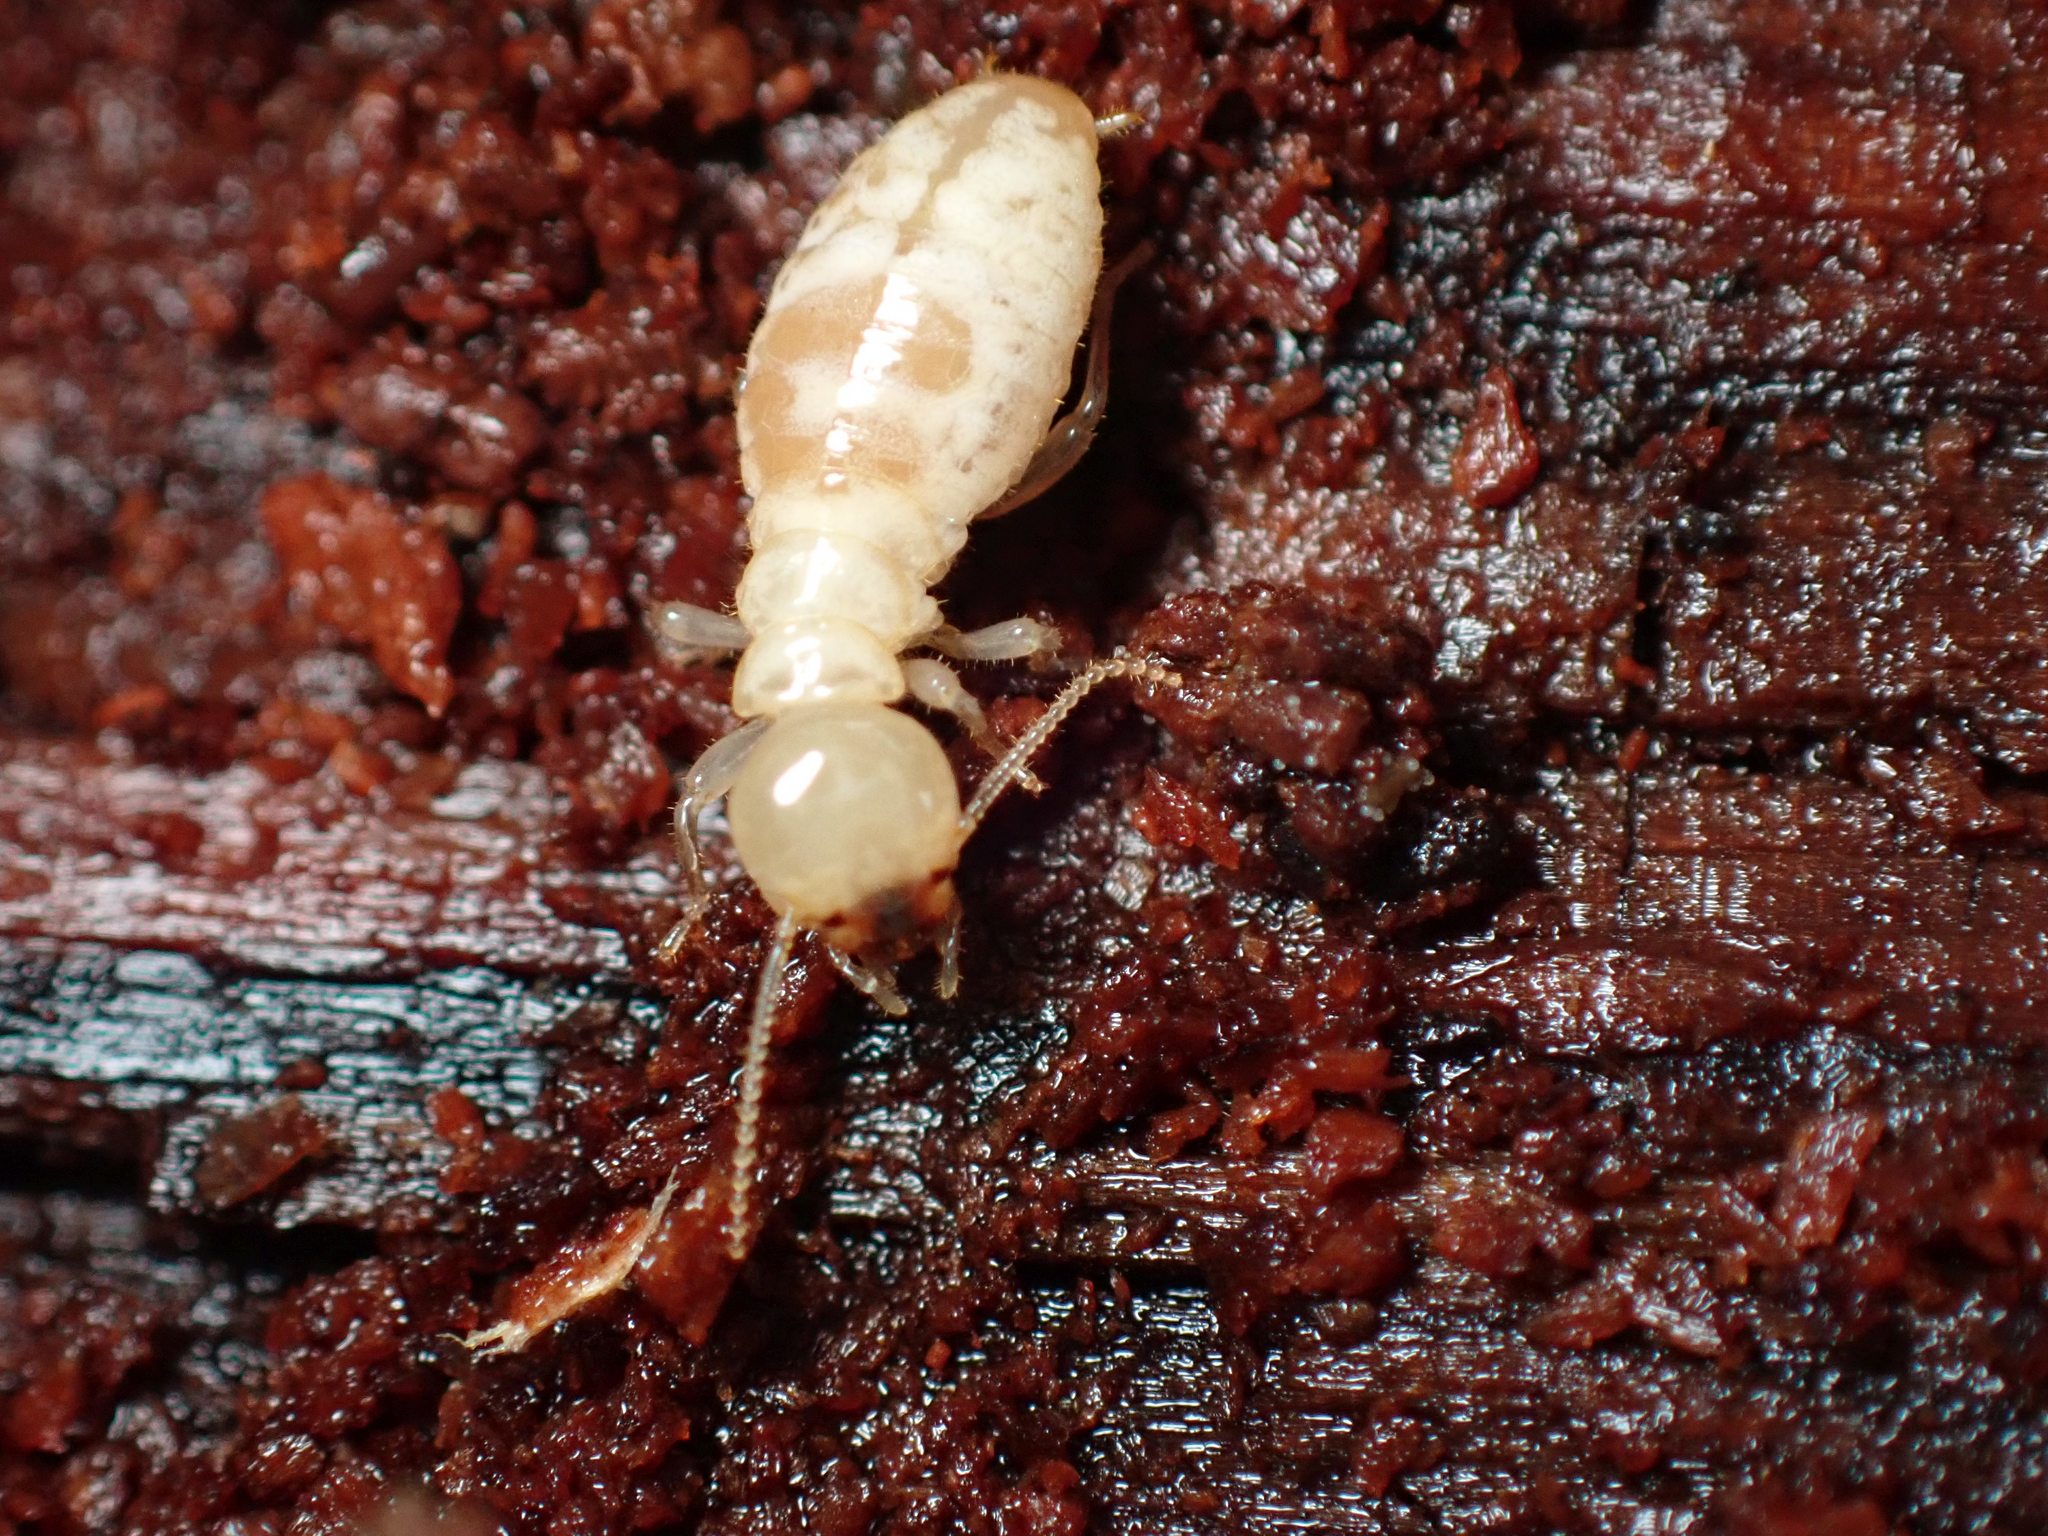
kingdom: Animalia
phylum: Arthropoda
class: Insecta
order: Blattodea
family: Archotermopsidae
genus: Zootermopsis
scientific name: Zootermopsis
